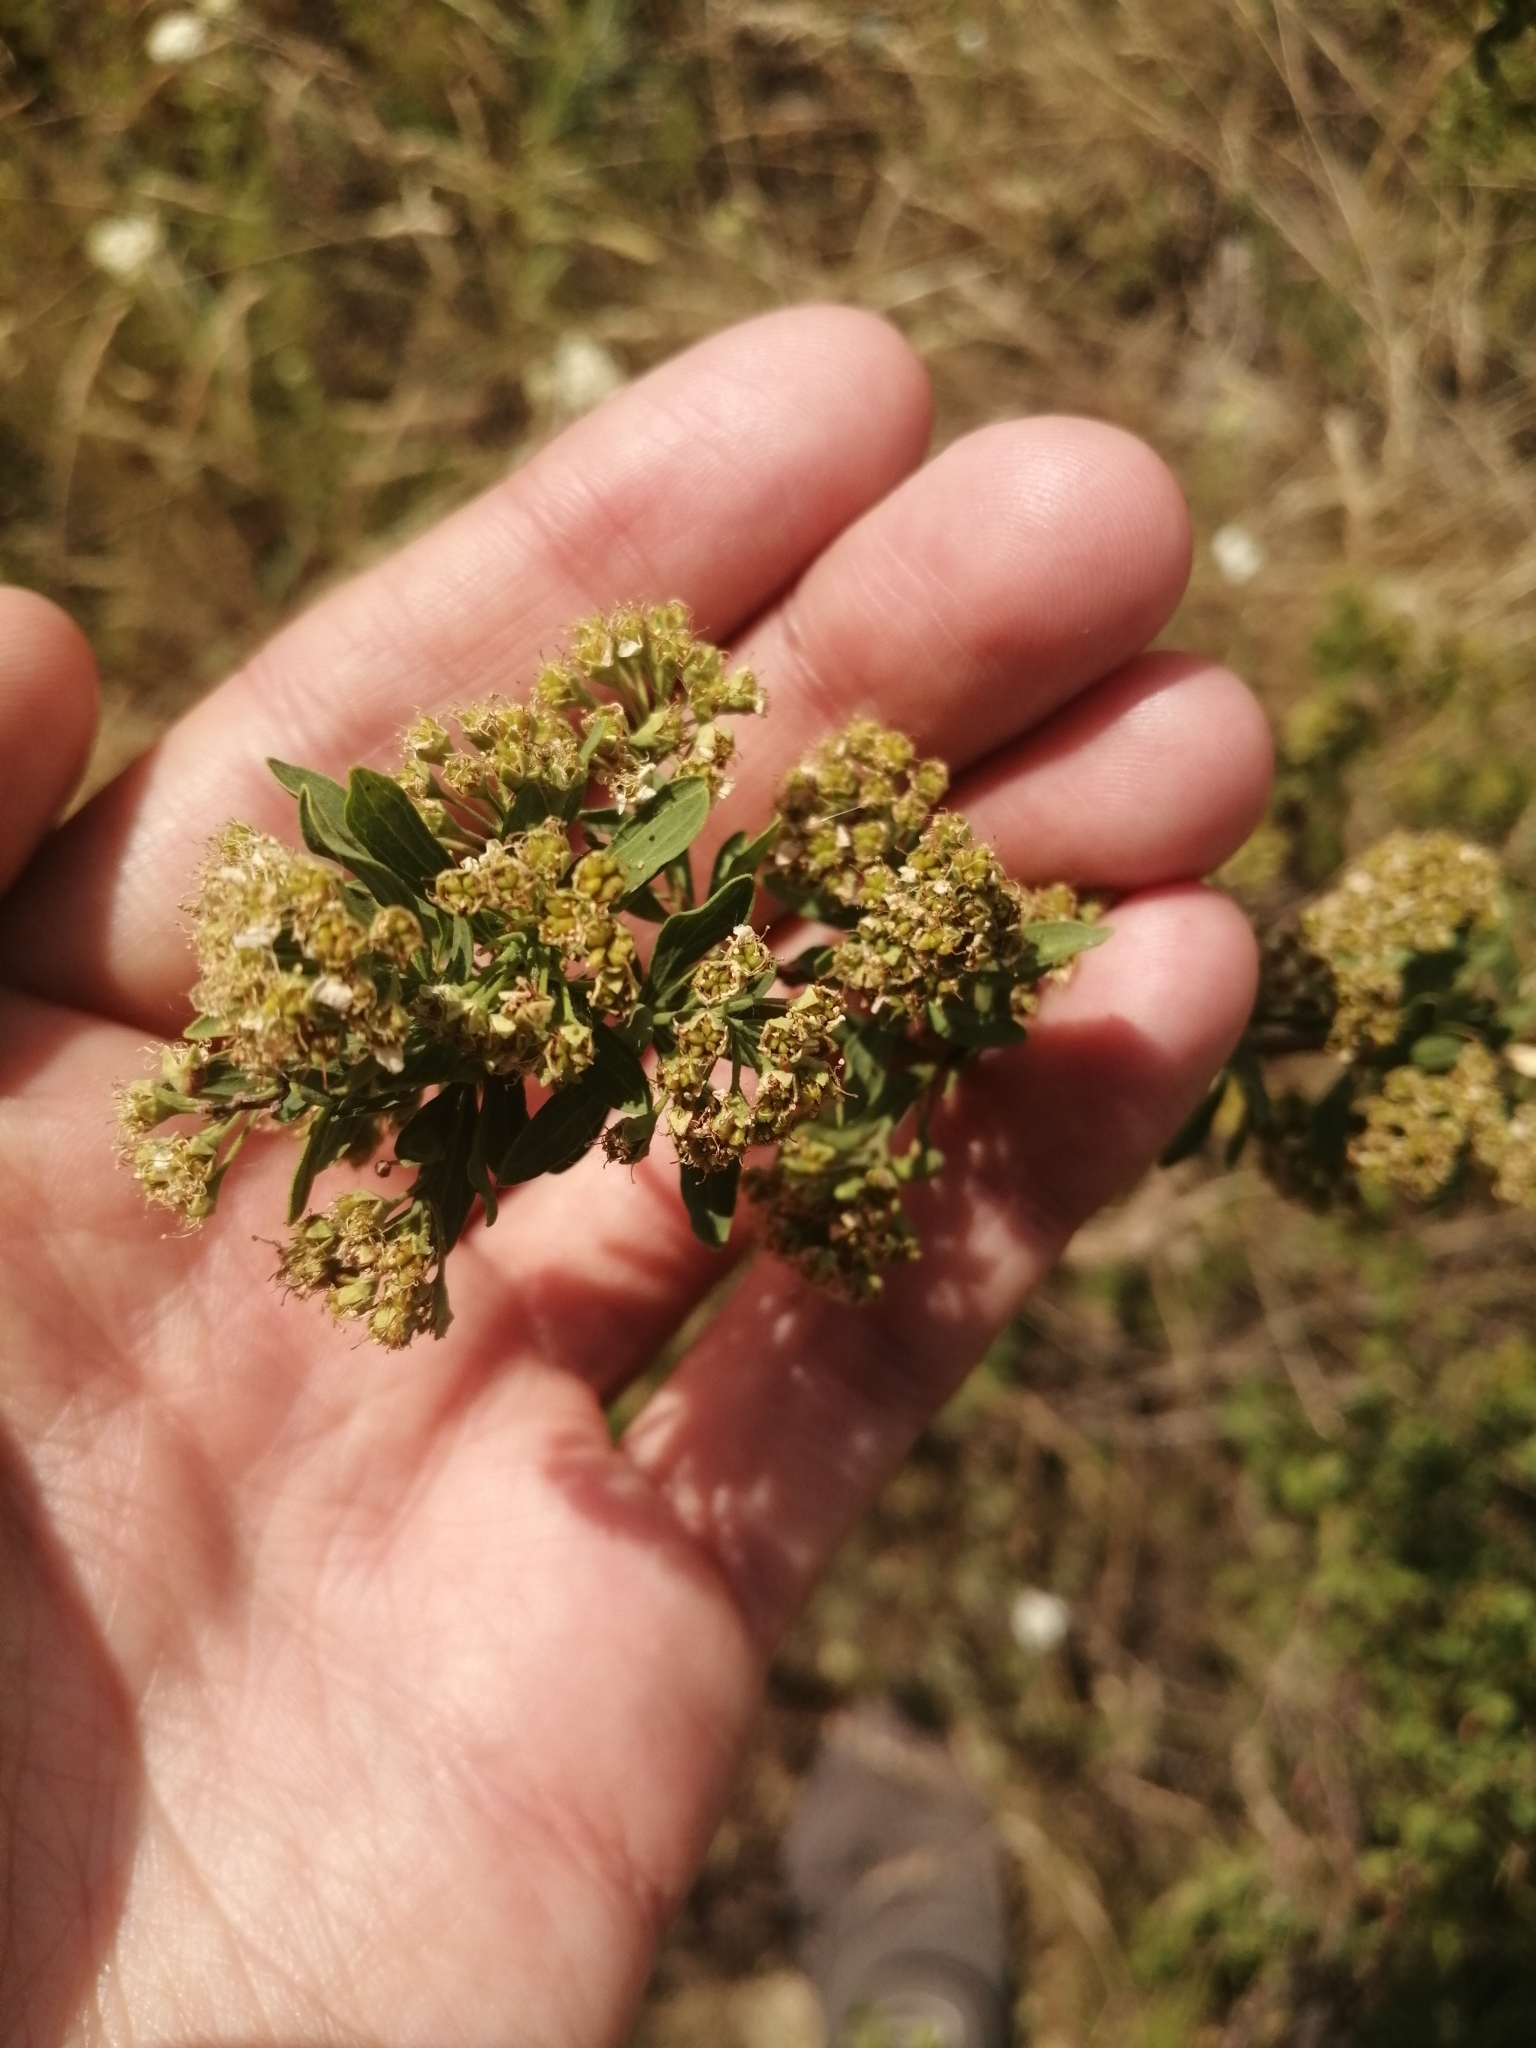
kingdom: Plantae
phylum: Tracheophyta
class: Magnoliopsida
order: Rosales
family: Rosaceae
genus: Spiraea
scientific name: Spiraea crenata
